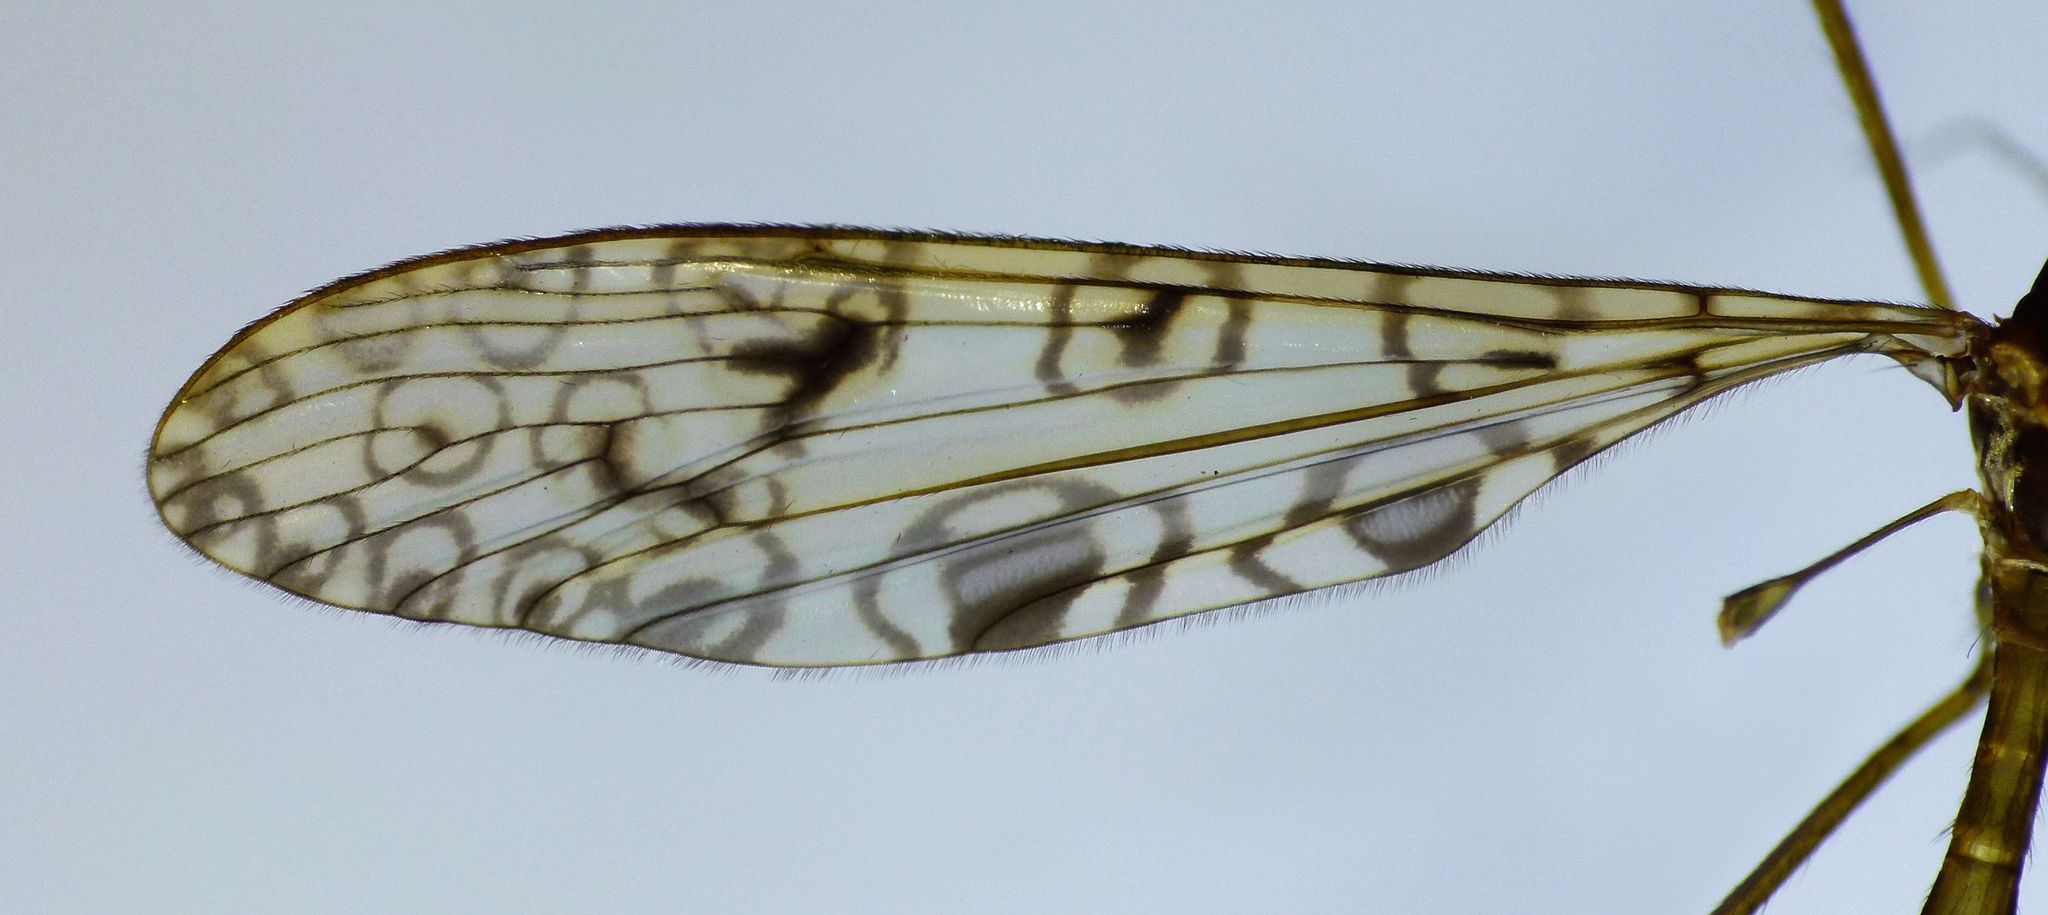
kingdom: Animalia
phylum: Arthropoda
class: Insecta
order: Diptera
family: Limoniidae
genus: Austrolimnophila
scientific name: Austrolimnophila argus
